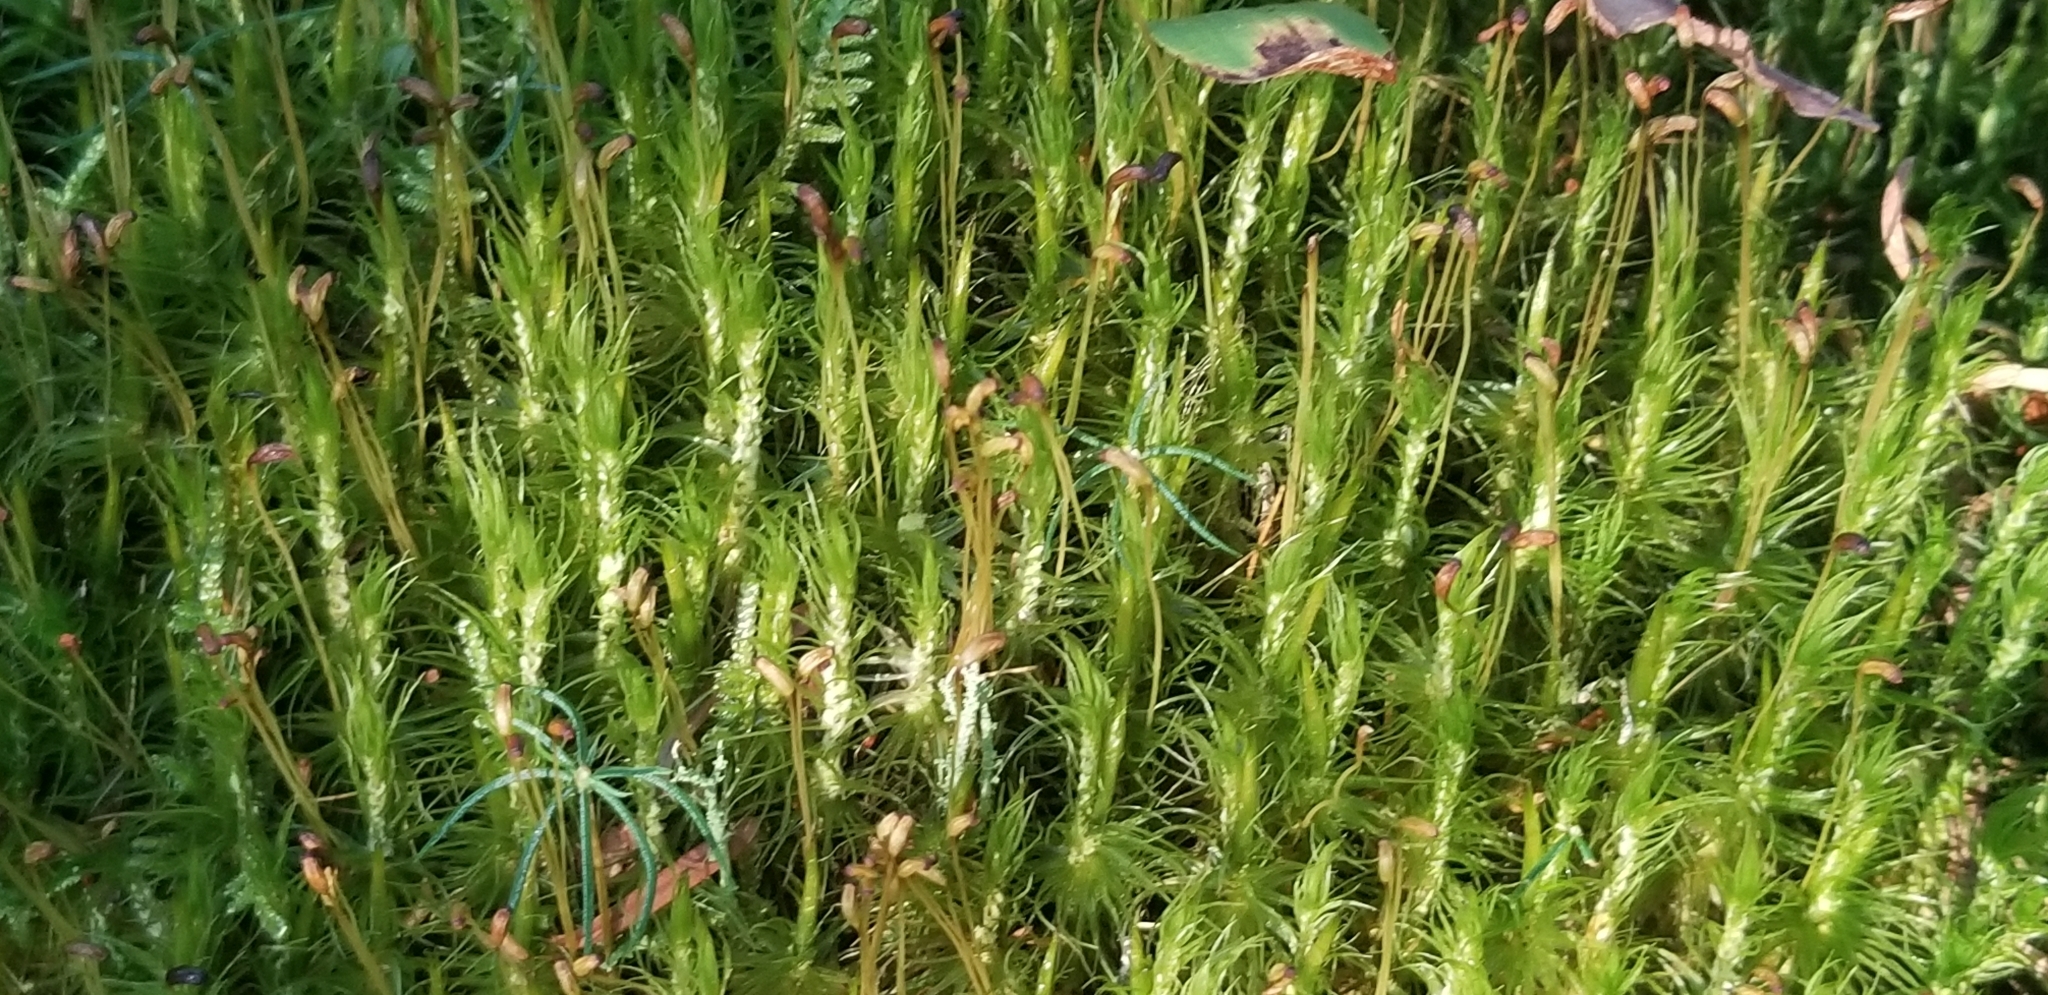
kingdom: Plantae
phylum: Bryophyta
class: Bryopsida
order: Dicranales
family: Dicranaceae
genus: Dicranum
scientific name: Dicranum polysetum
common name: Rugose fork-moss
